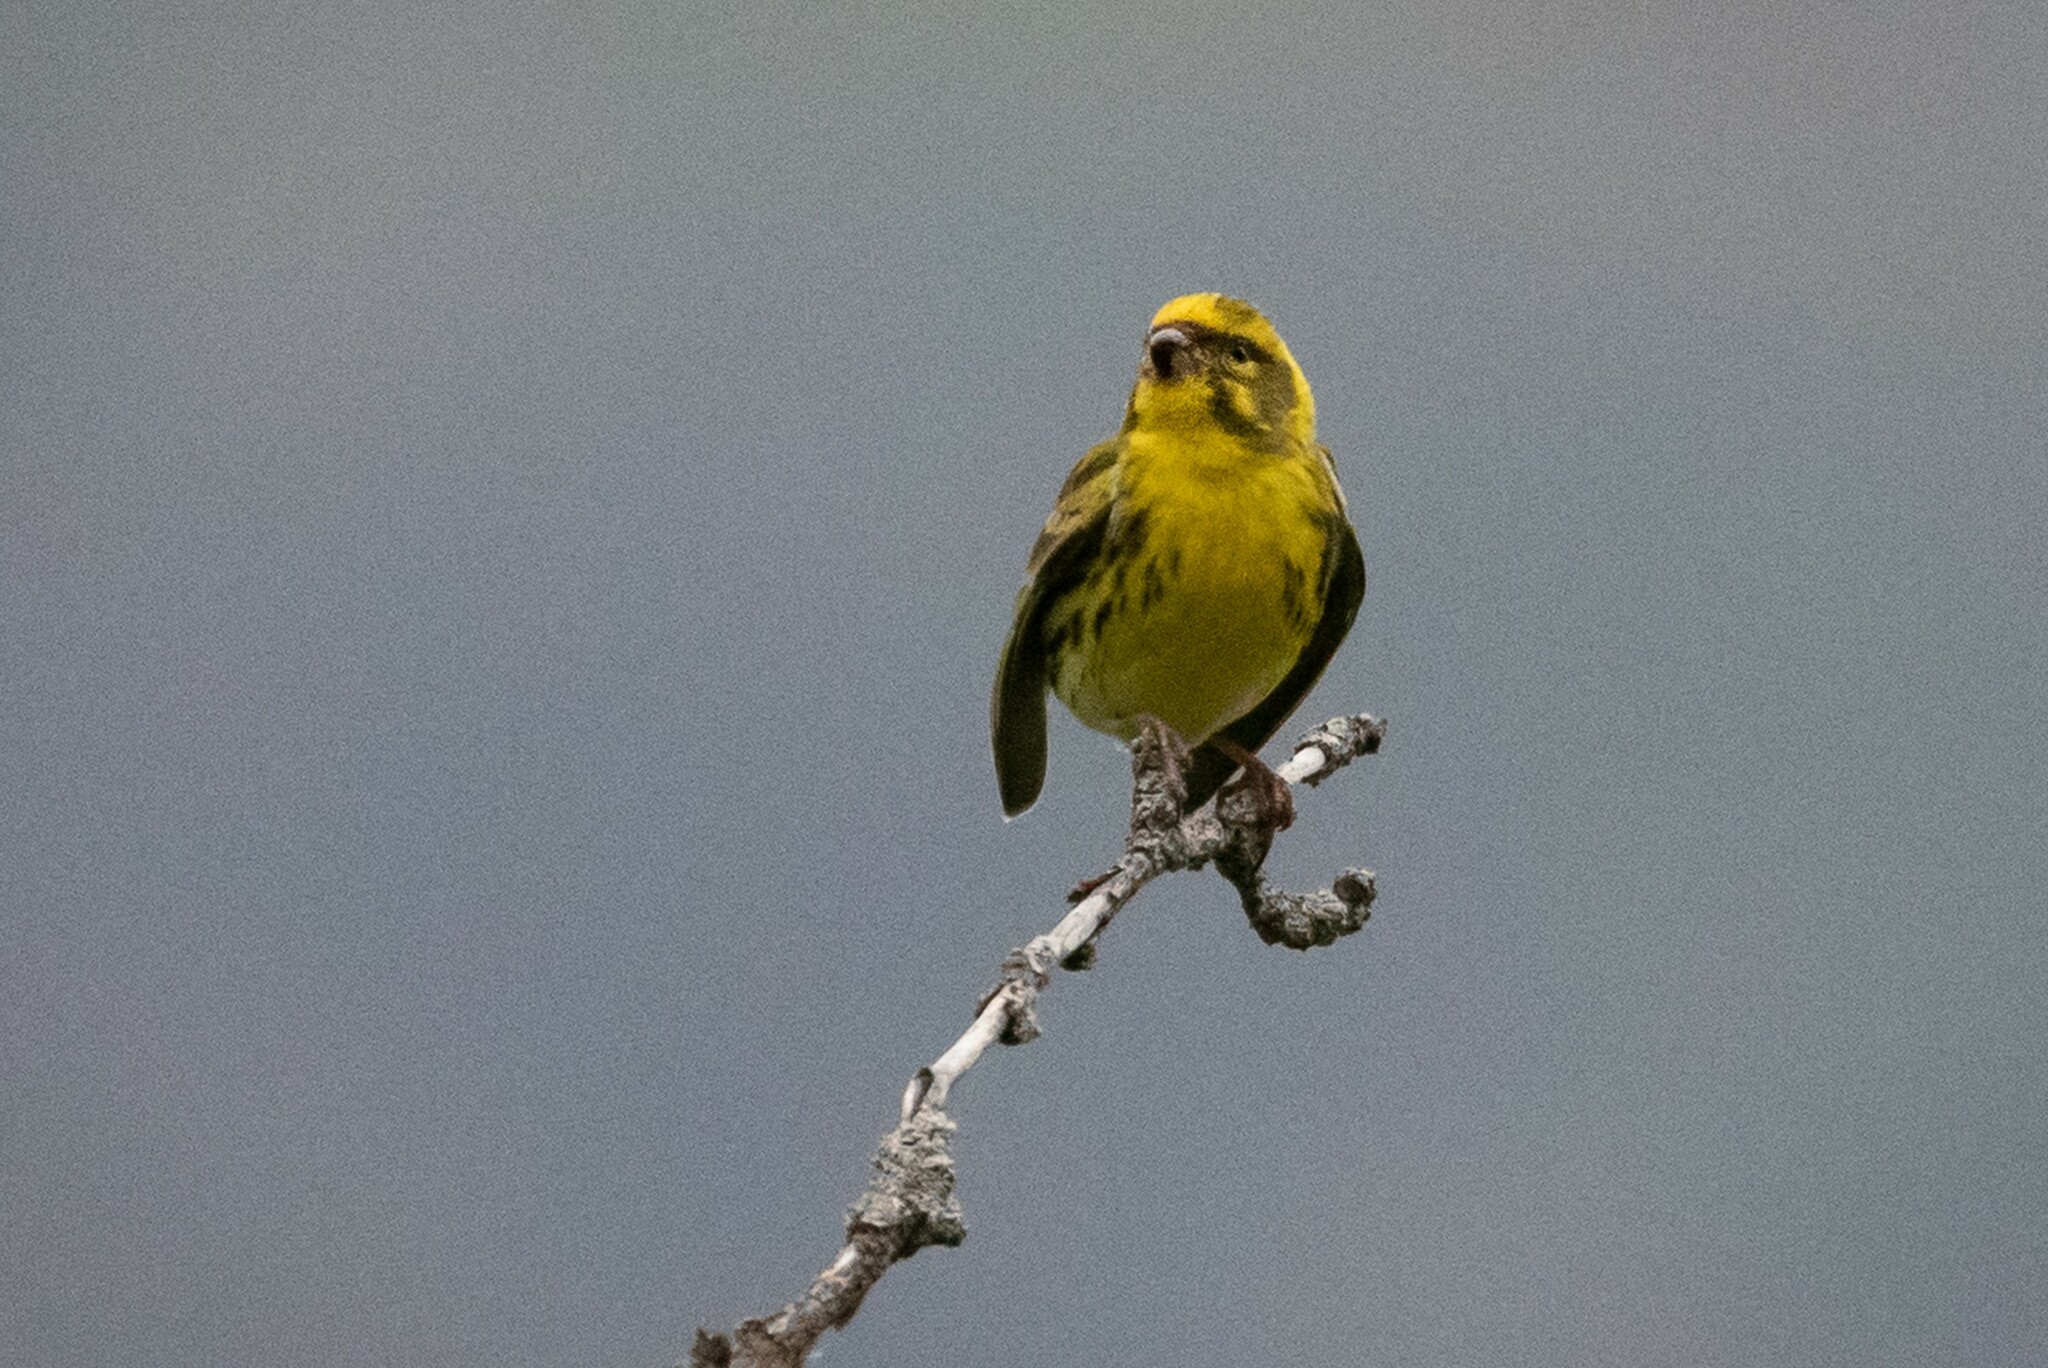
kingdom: Animalia
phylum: Chordata
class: Aves
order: Passeriformes
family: Fringillidae
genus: Serinus
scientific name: Serinus serinus
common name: European serin
